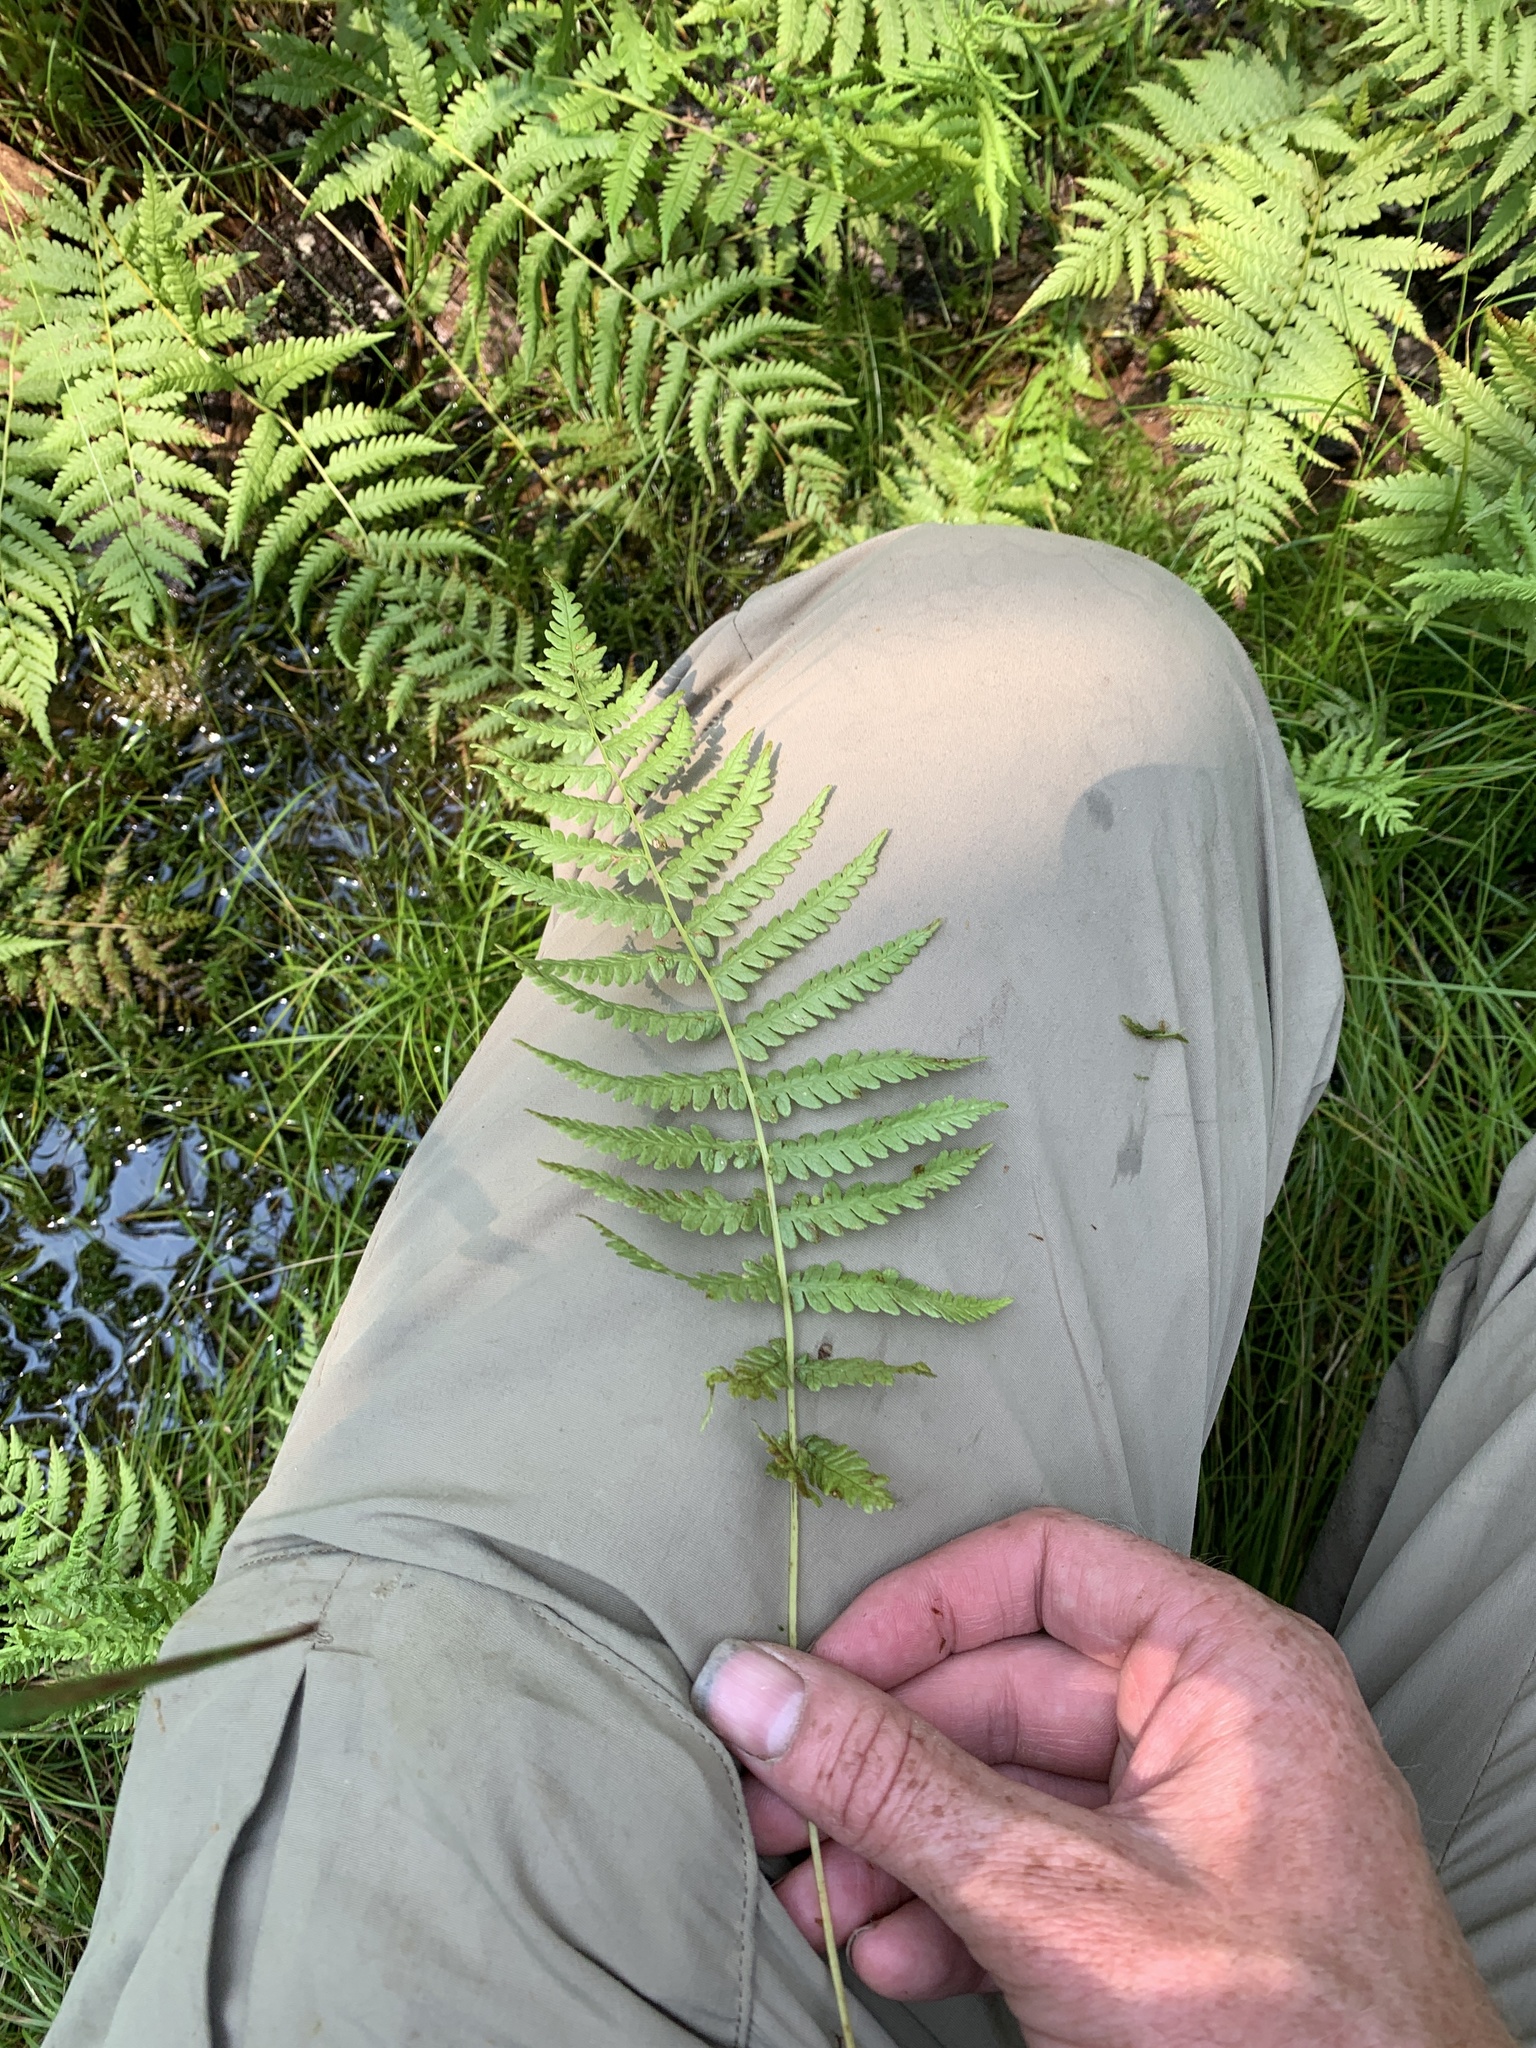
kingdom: Plantae
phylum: Tracheophyta
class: Polypodiopsida
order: Polypodiales
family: Thelypteridaceae
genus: Amauropelta
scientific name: Amauropelta noveboracensis
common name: New york fern
